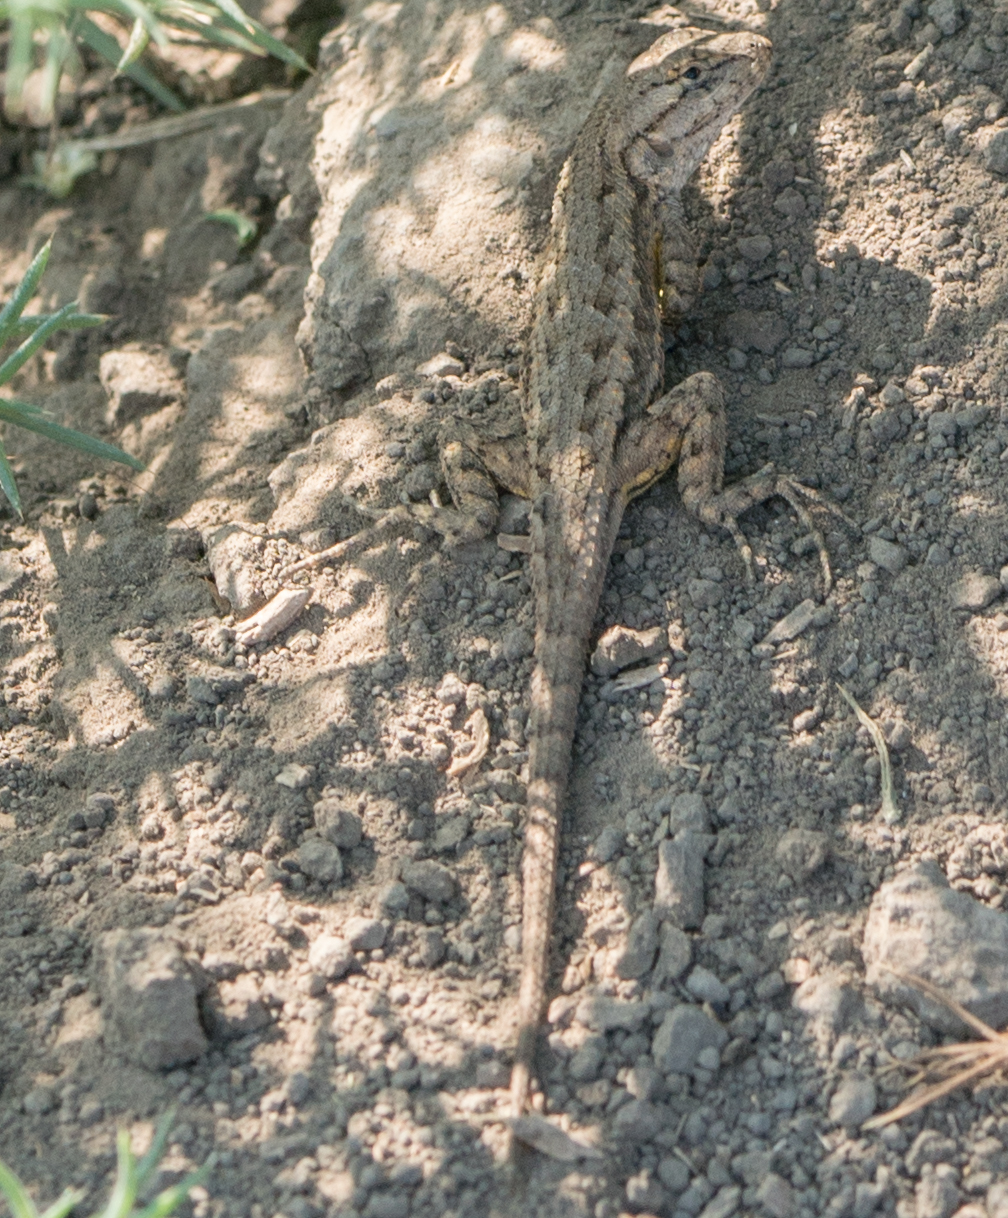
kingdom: Animalia
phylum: Chordata
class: Squamata
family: Phrynosomatidae
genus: Sceloporus
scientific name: Sceloporus occidentalis
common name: Western fence lizard
